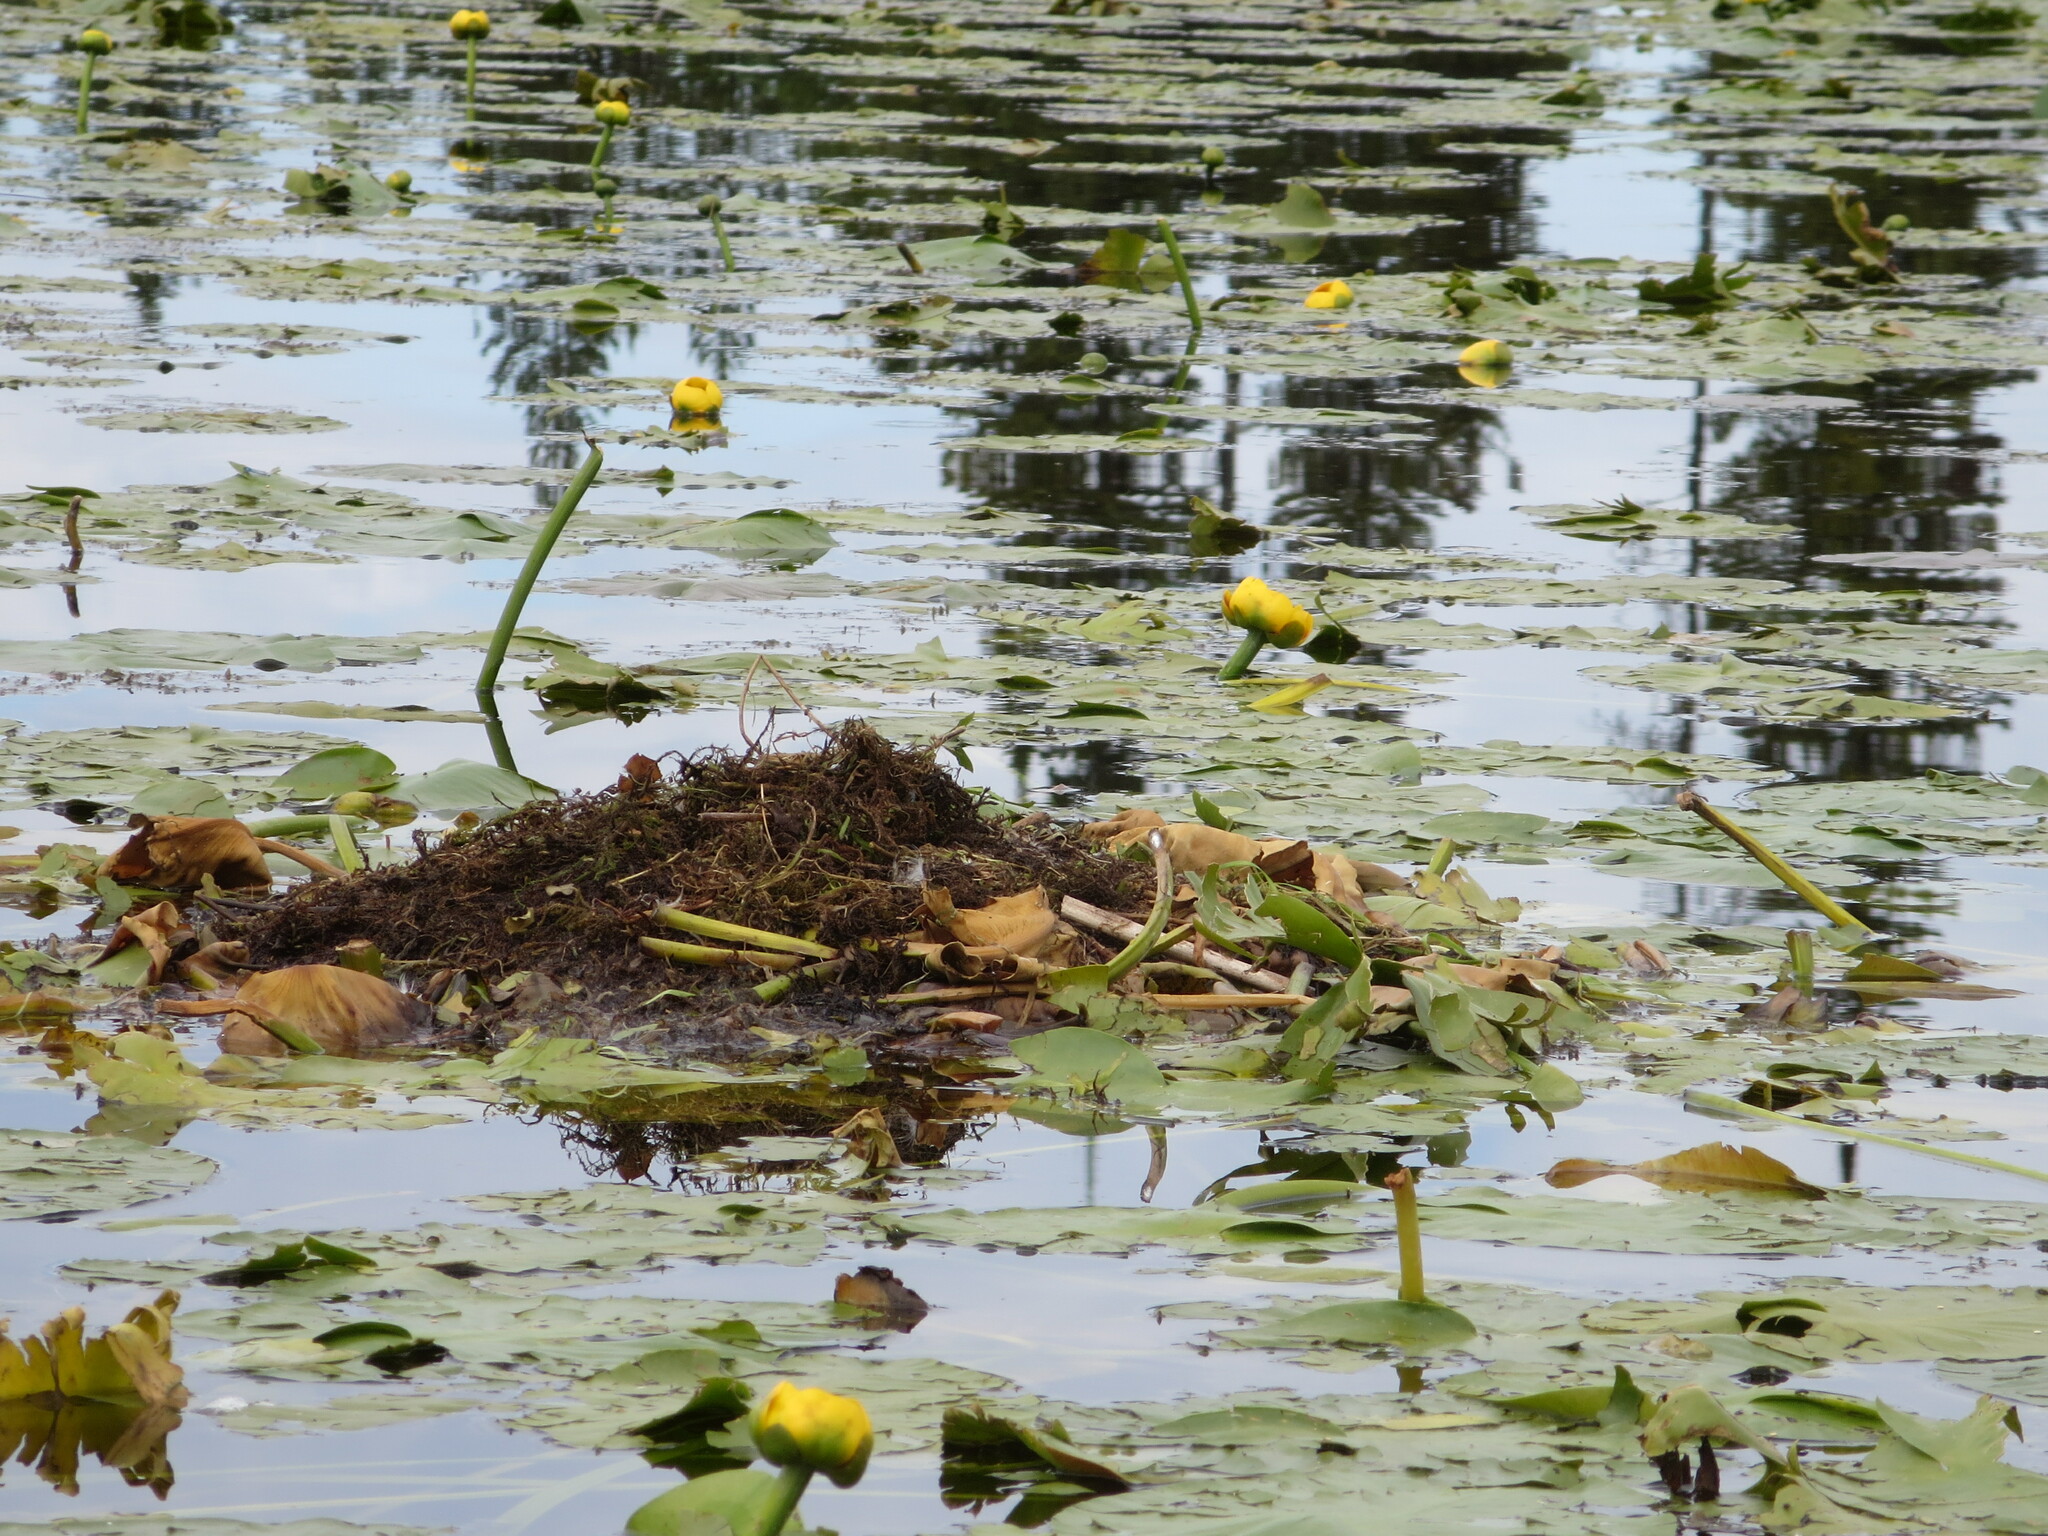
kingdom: Animalia
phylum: Chordata
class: Aves
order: Podicipediformes
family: Podicipedidae
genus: Podiceps
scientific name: Podiceps grisegena
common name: Red-necked grebe
